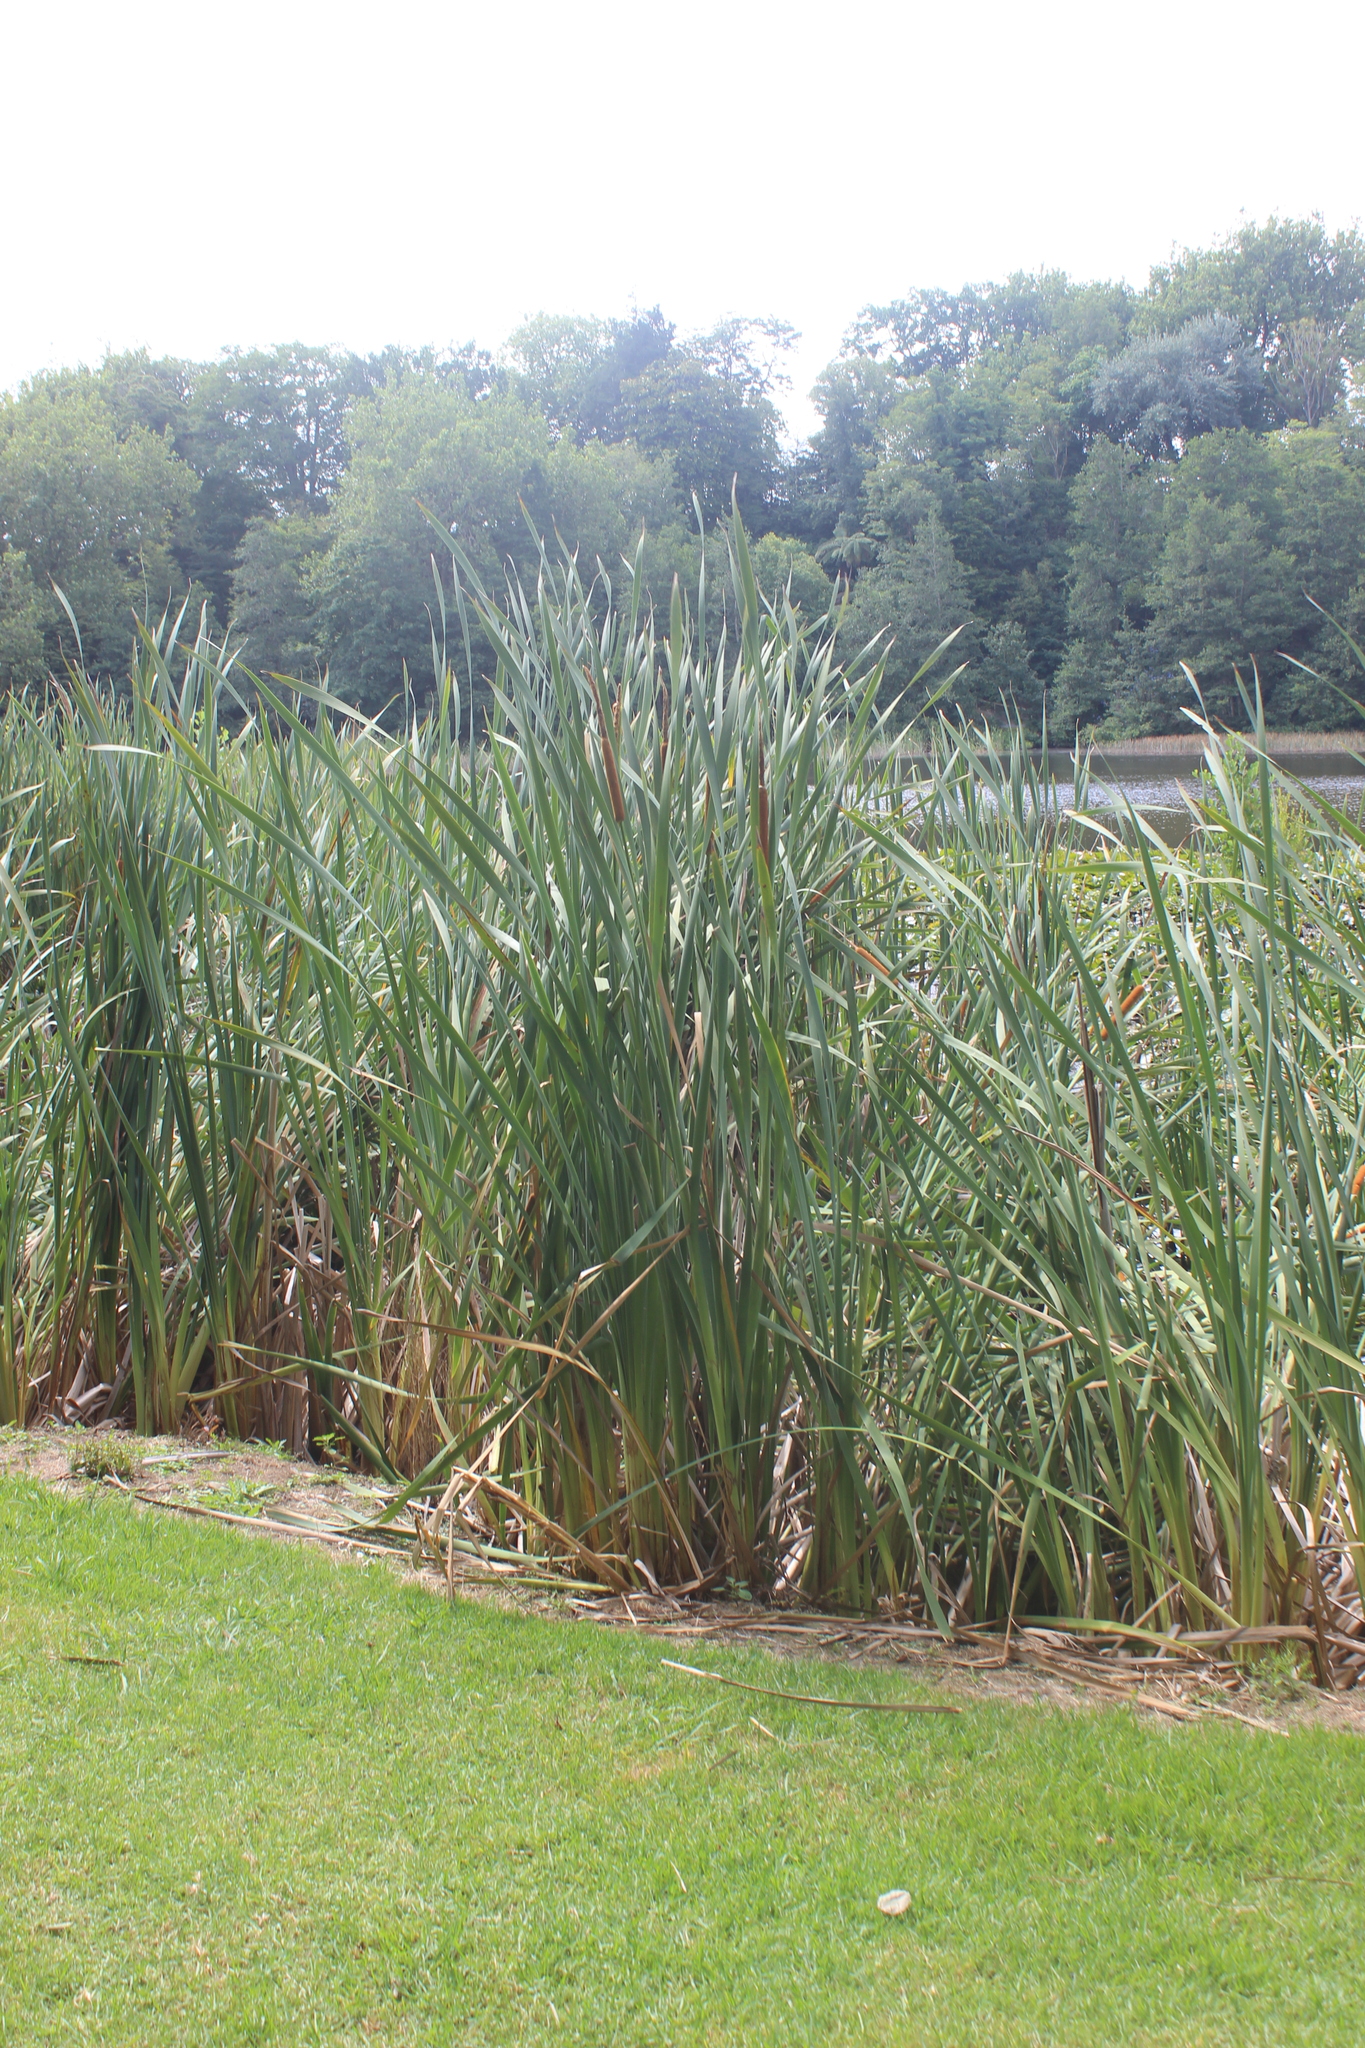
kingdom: Plantae
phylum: Tracheophyta
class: Liliopsida
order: Poales
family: Typhaceae
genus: Typha
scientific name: Typha orientalis
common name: Bullrush
